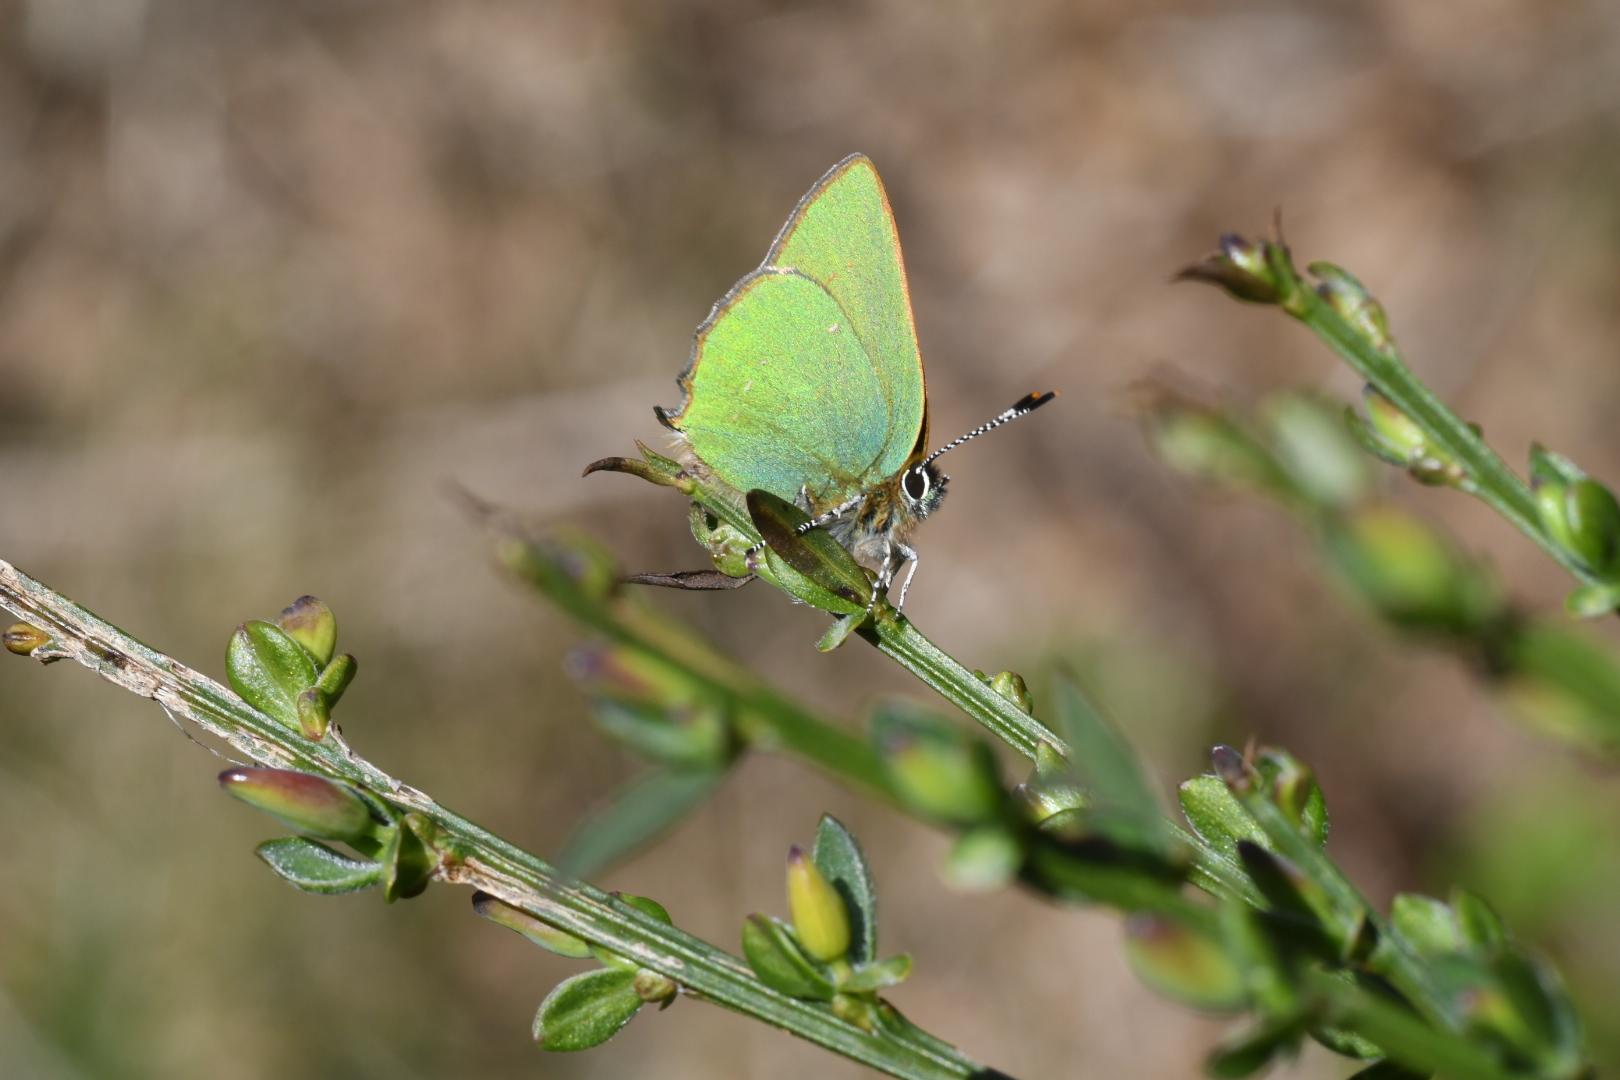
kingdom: Animalia
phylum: Arthropoda
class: Insecta
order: Lepidoptera
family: Lycaenidae
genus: Callophrys
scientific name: Callophrys rubi
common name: Green hairstreak
